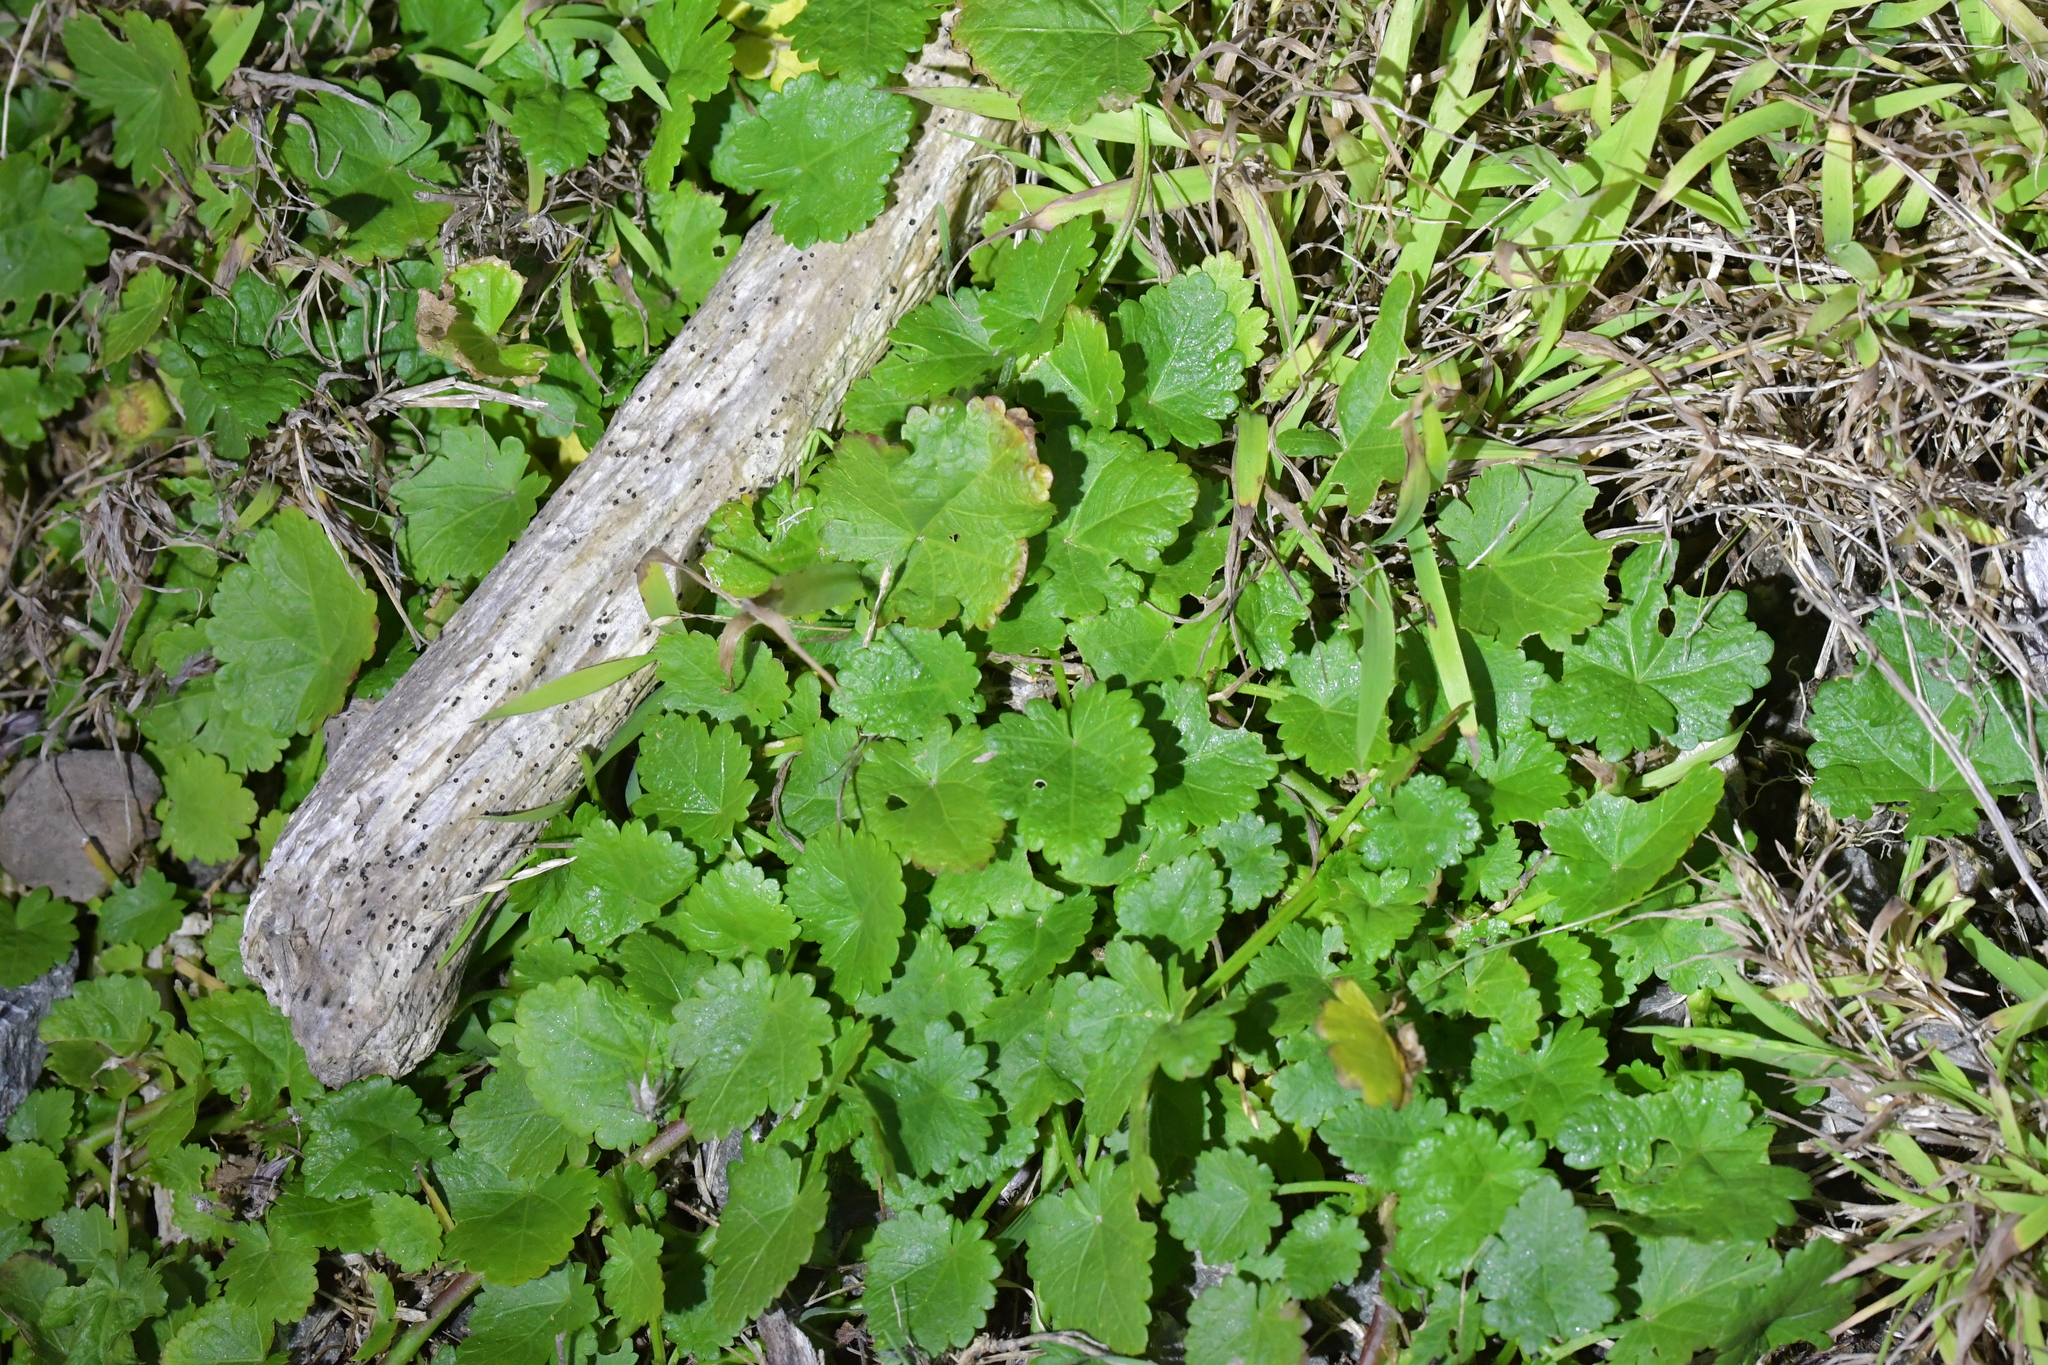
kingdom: Plantae
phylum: Tracheophyta
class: Magnoliopsida
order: Malvales
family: Malvaceae
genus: Modiola
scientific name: Modiola caroliniana
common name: Carolina bristlemallow
